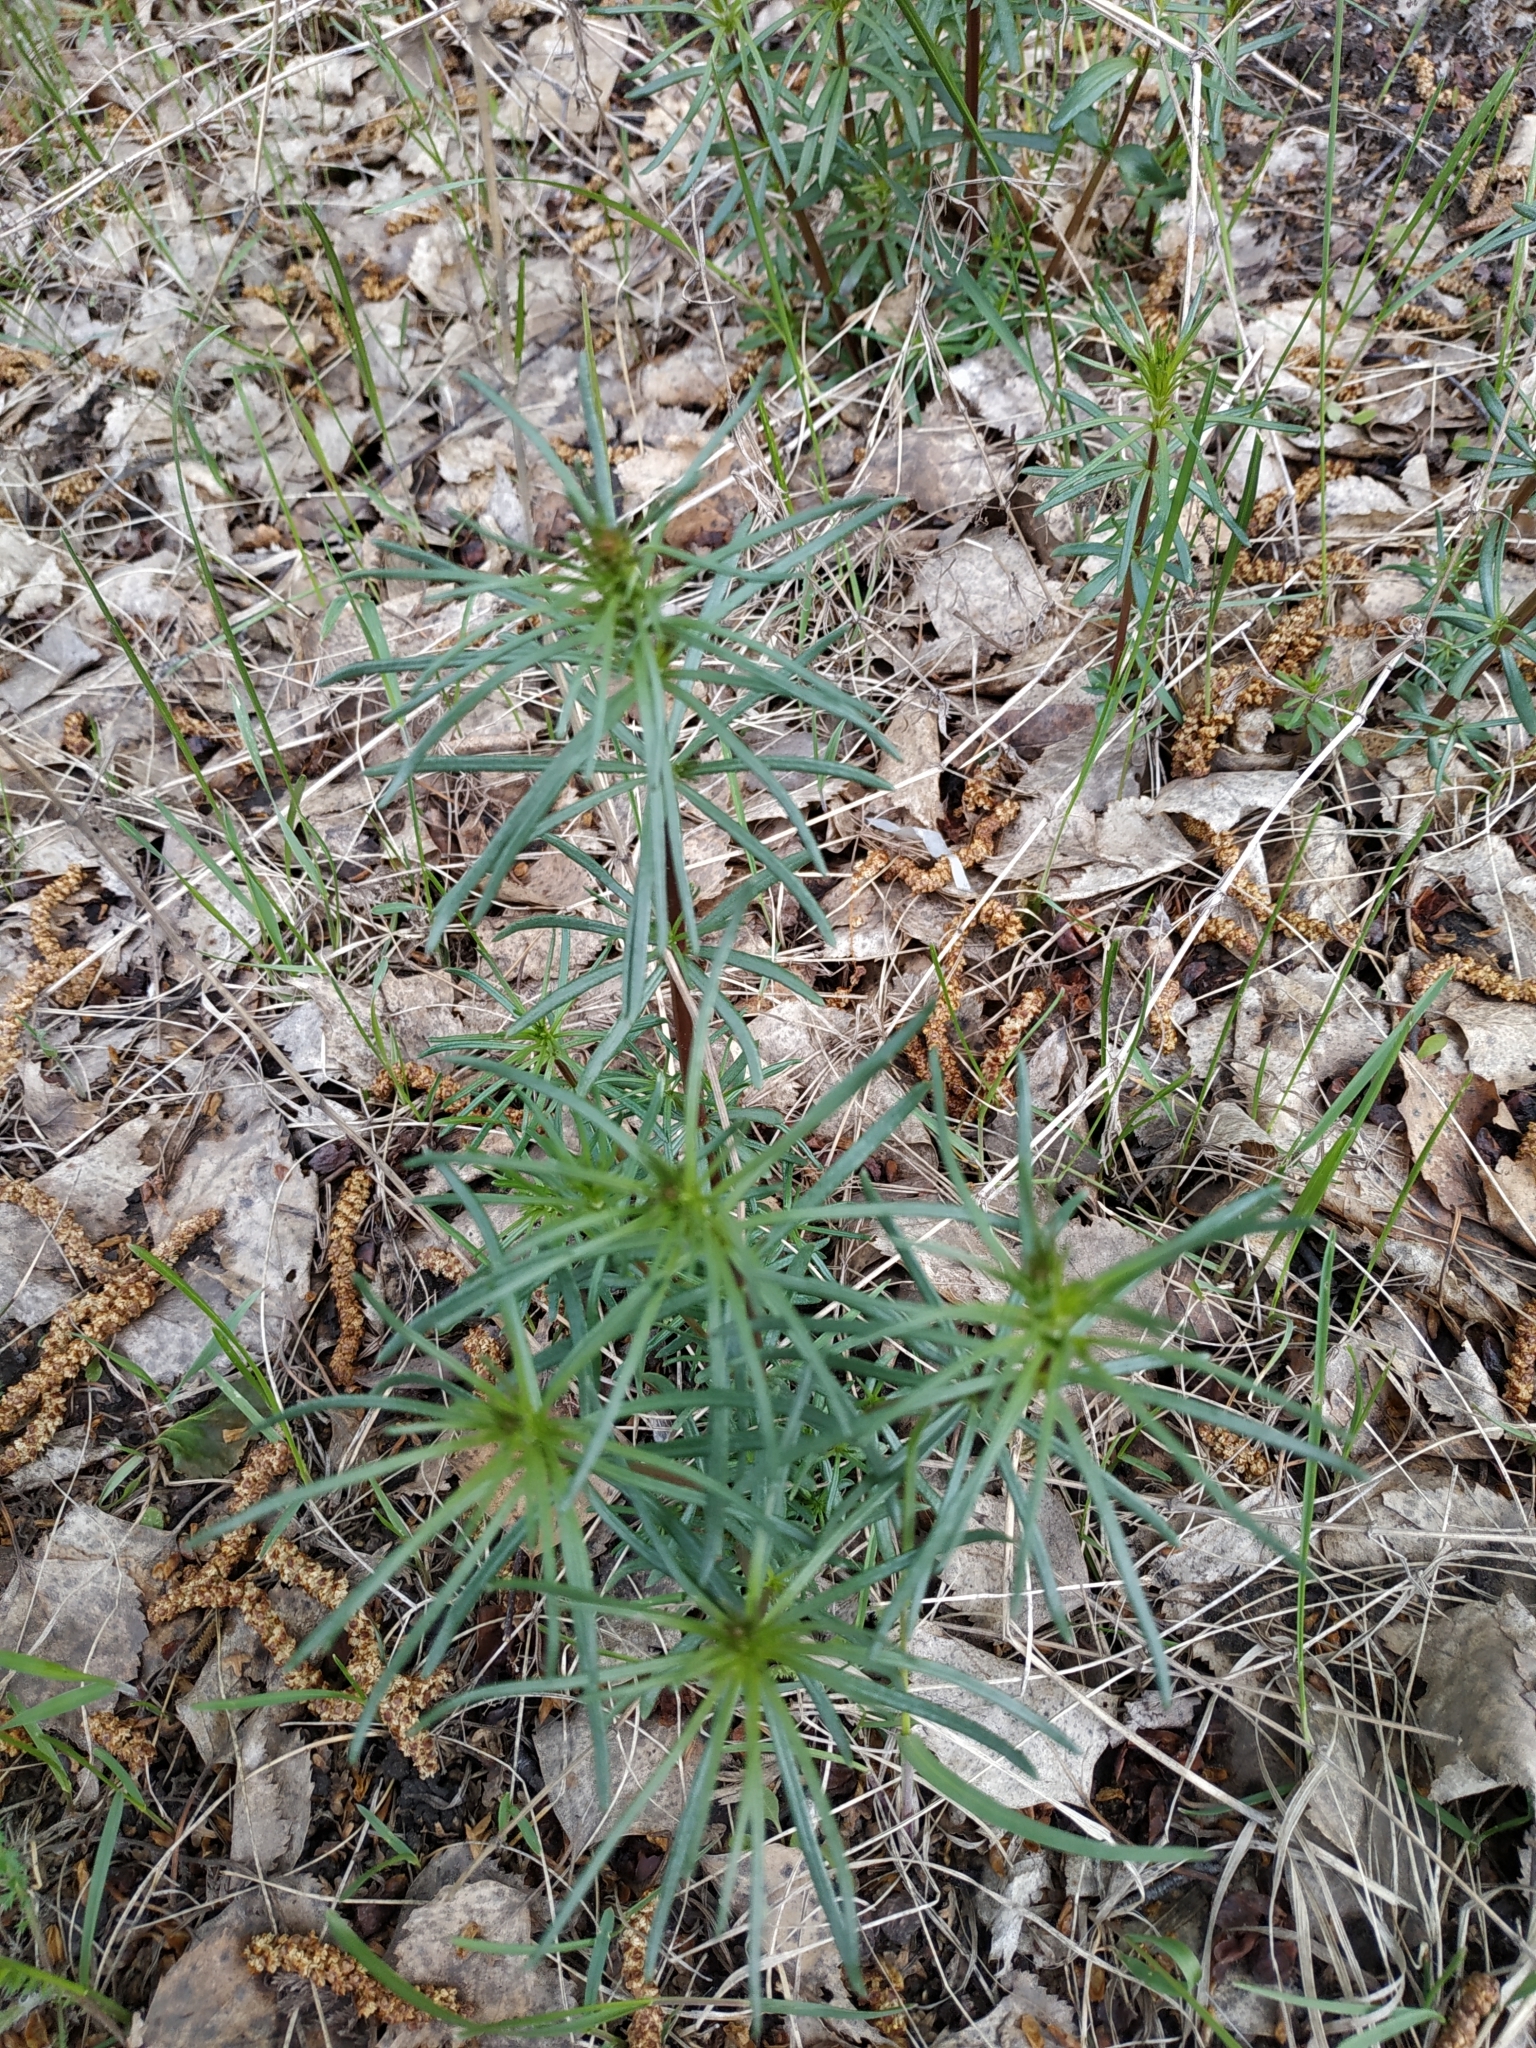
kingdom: Plantae
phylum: Tracheophyta
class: Magnoliopsida
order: Gentianales
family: Rubiaceae
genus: Galium
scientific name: Galium verum
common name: Lady's bedstraw
